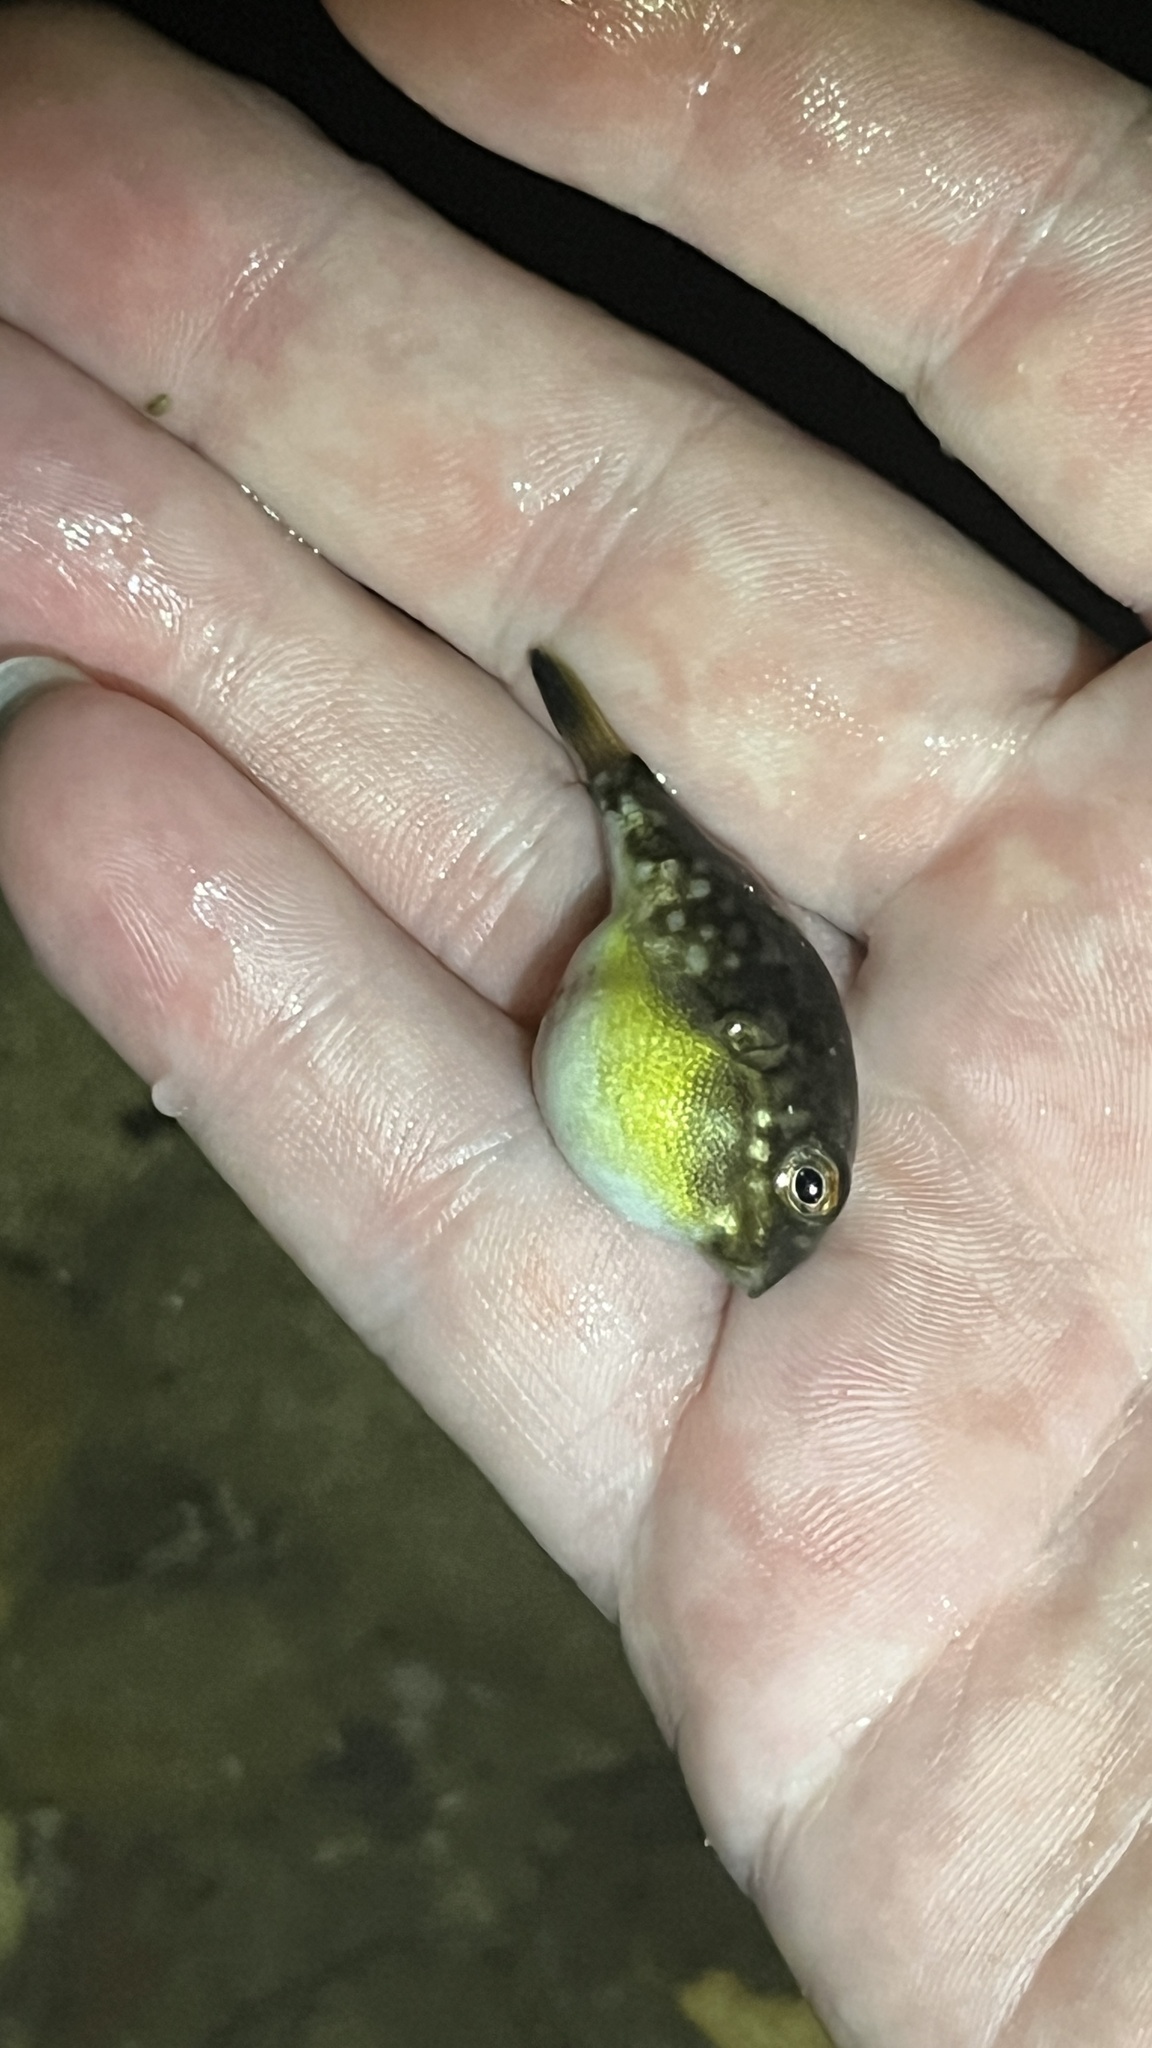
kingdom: Animalia
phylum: Chordata
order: Tetraodontiformes
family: Tetraodontidae
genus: Chelonodontops
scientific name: Chelonodontops patoca
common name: Gangetic blow fish
